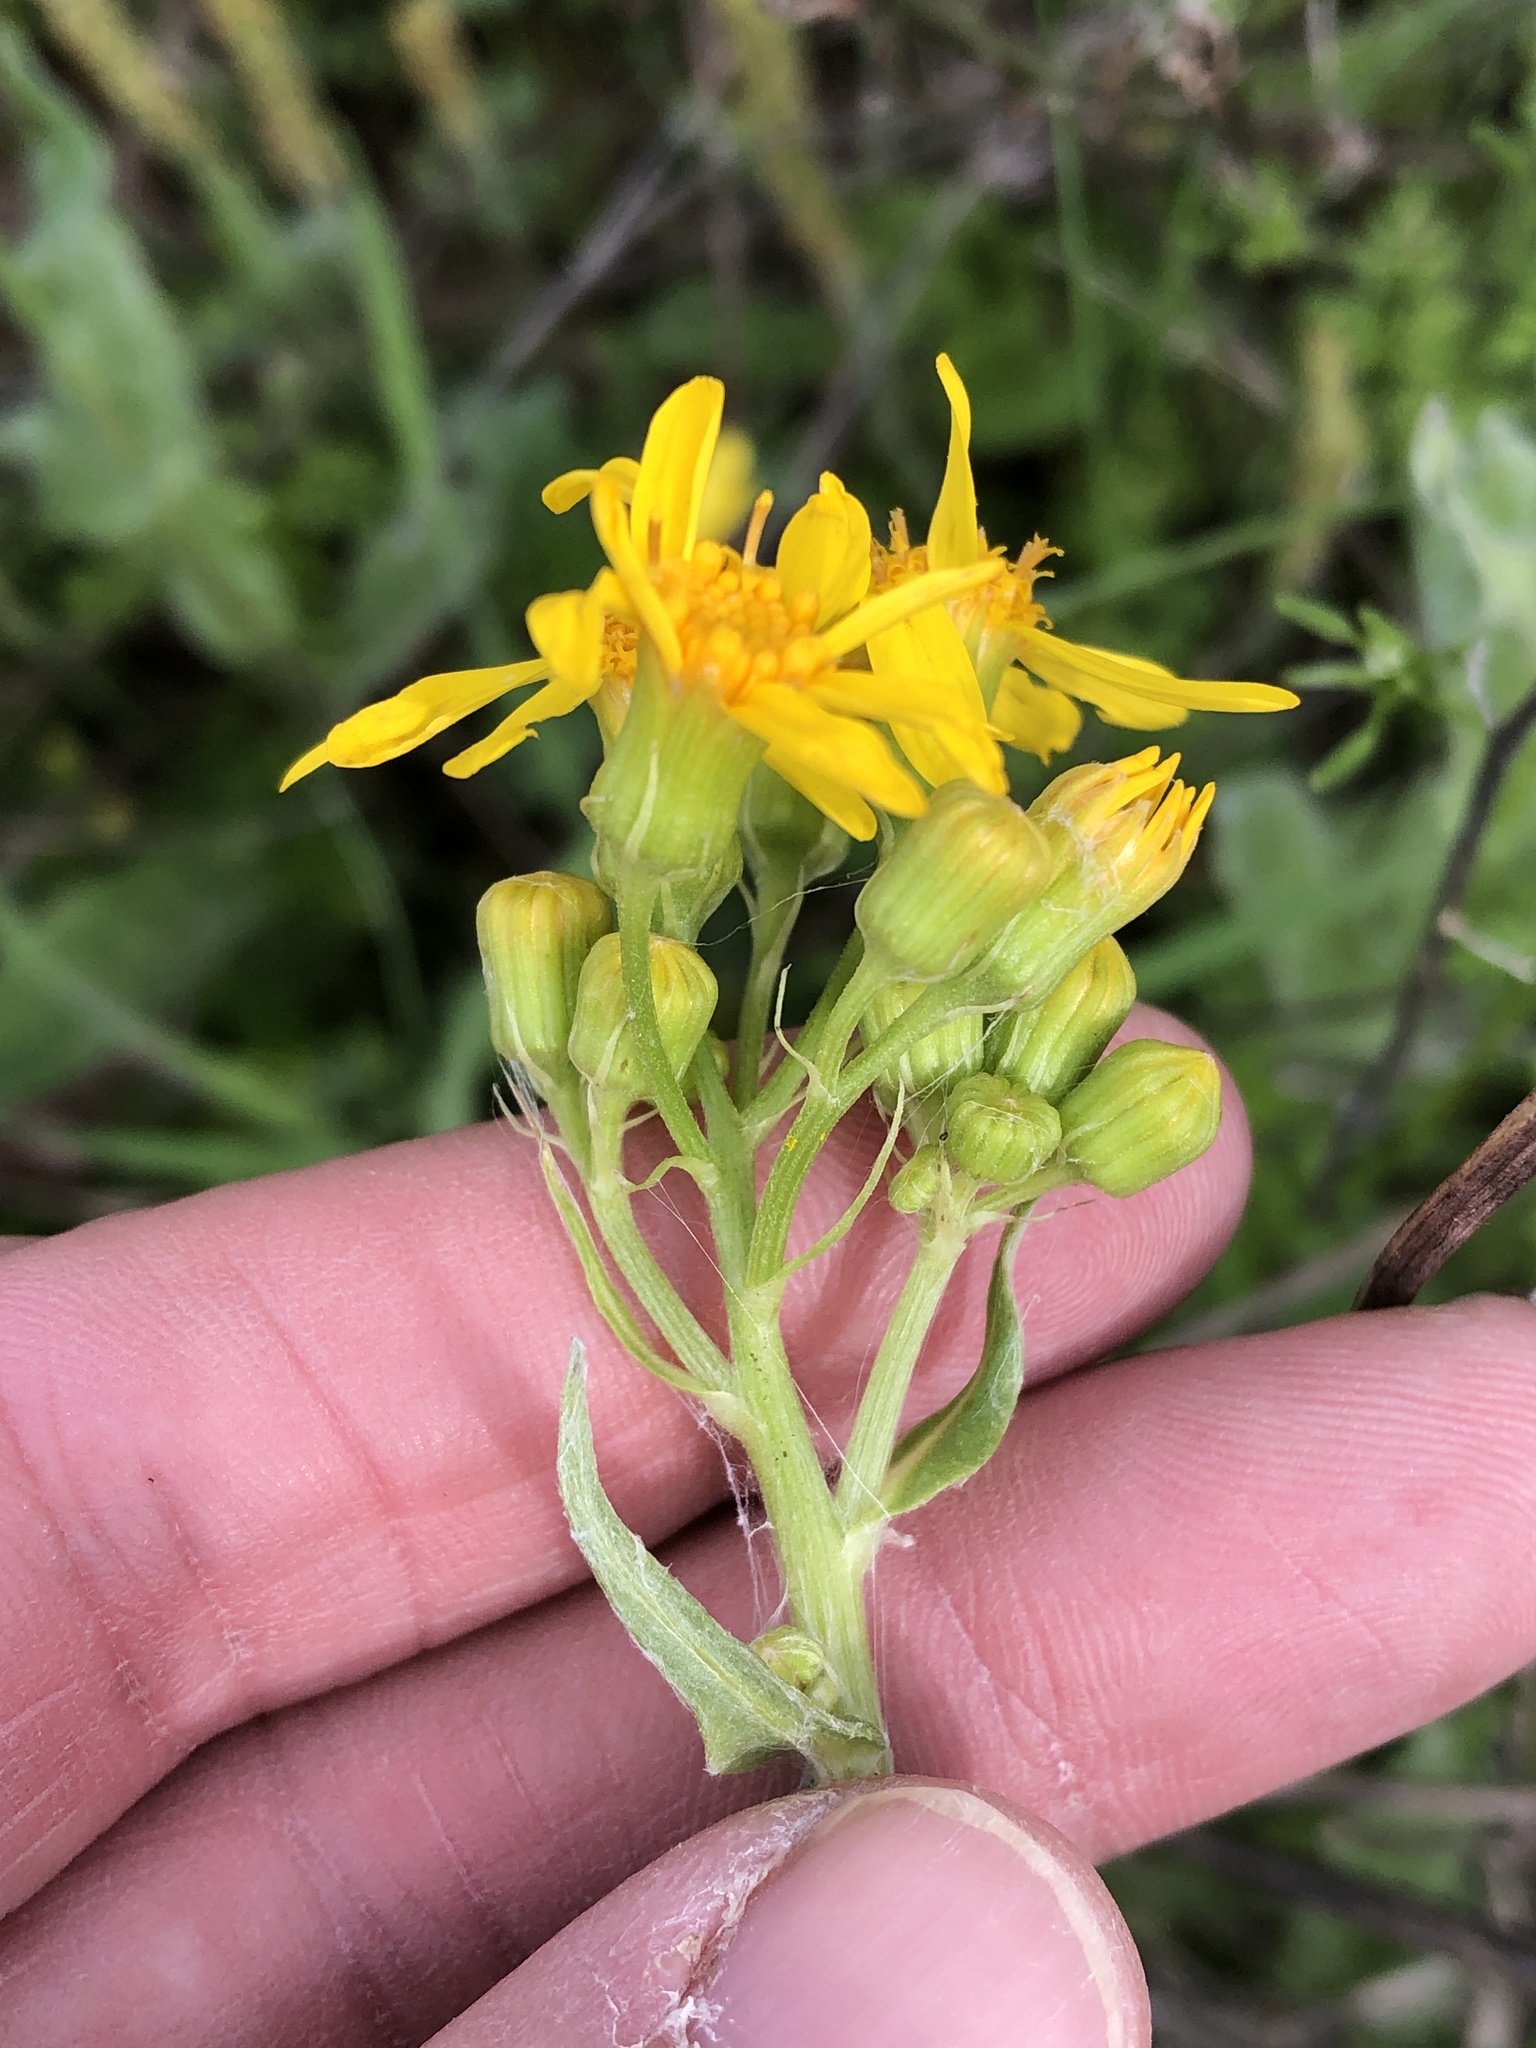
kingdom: Plantae
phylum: Tracheophyta
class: Magnoliopsida
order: Asterales
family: Asteraceae
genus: Senecio
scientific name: Senecio ampullaceus
